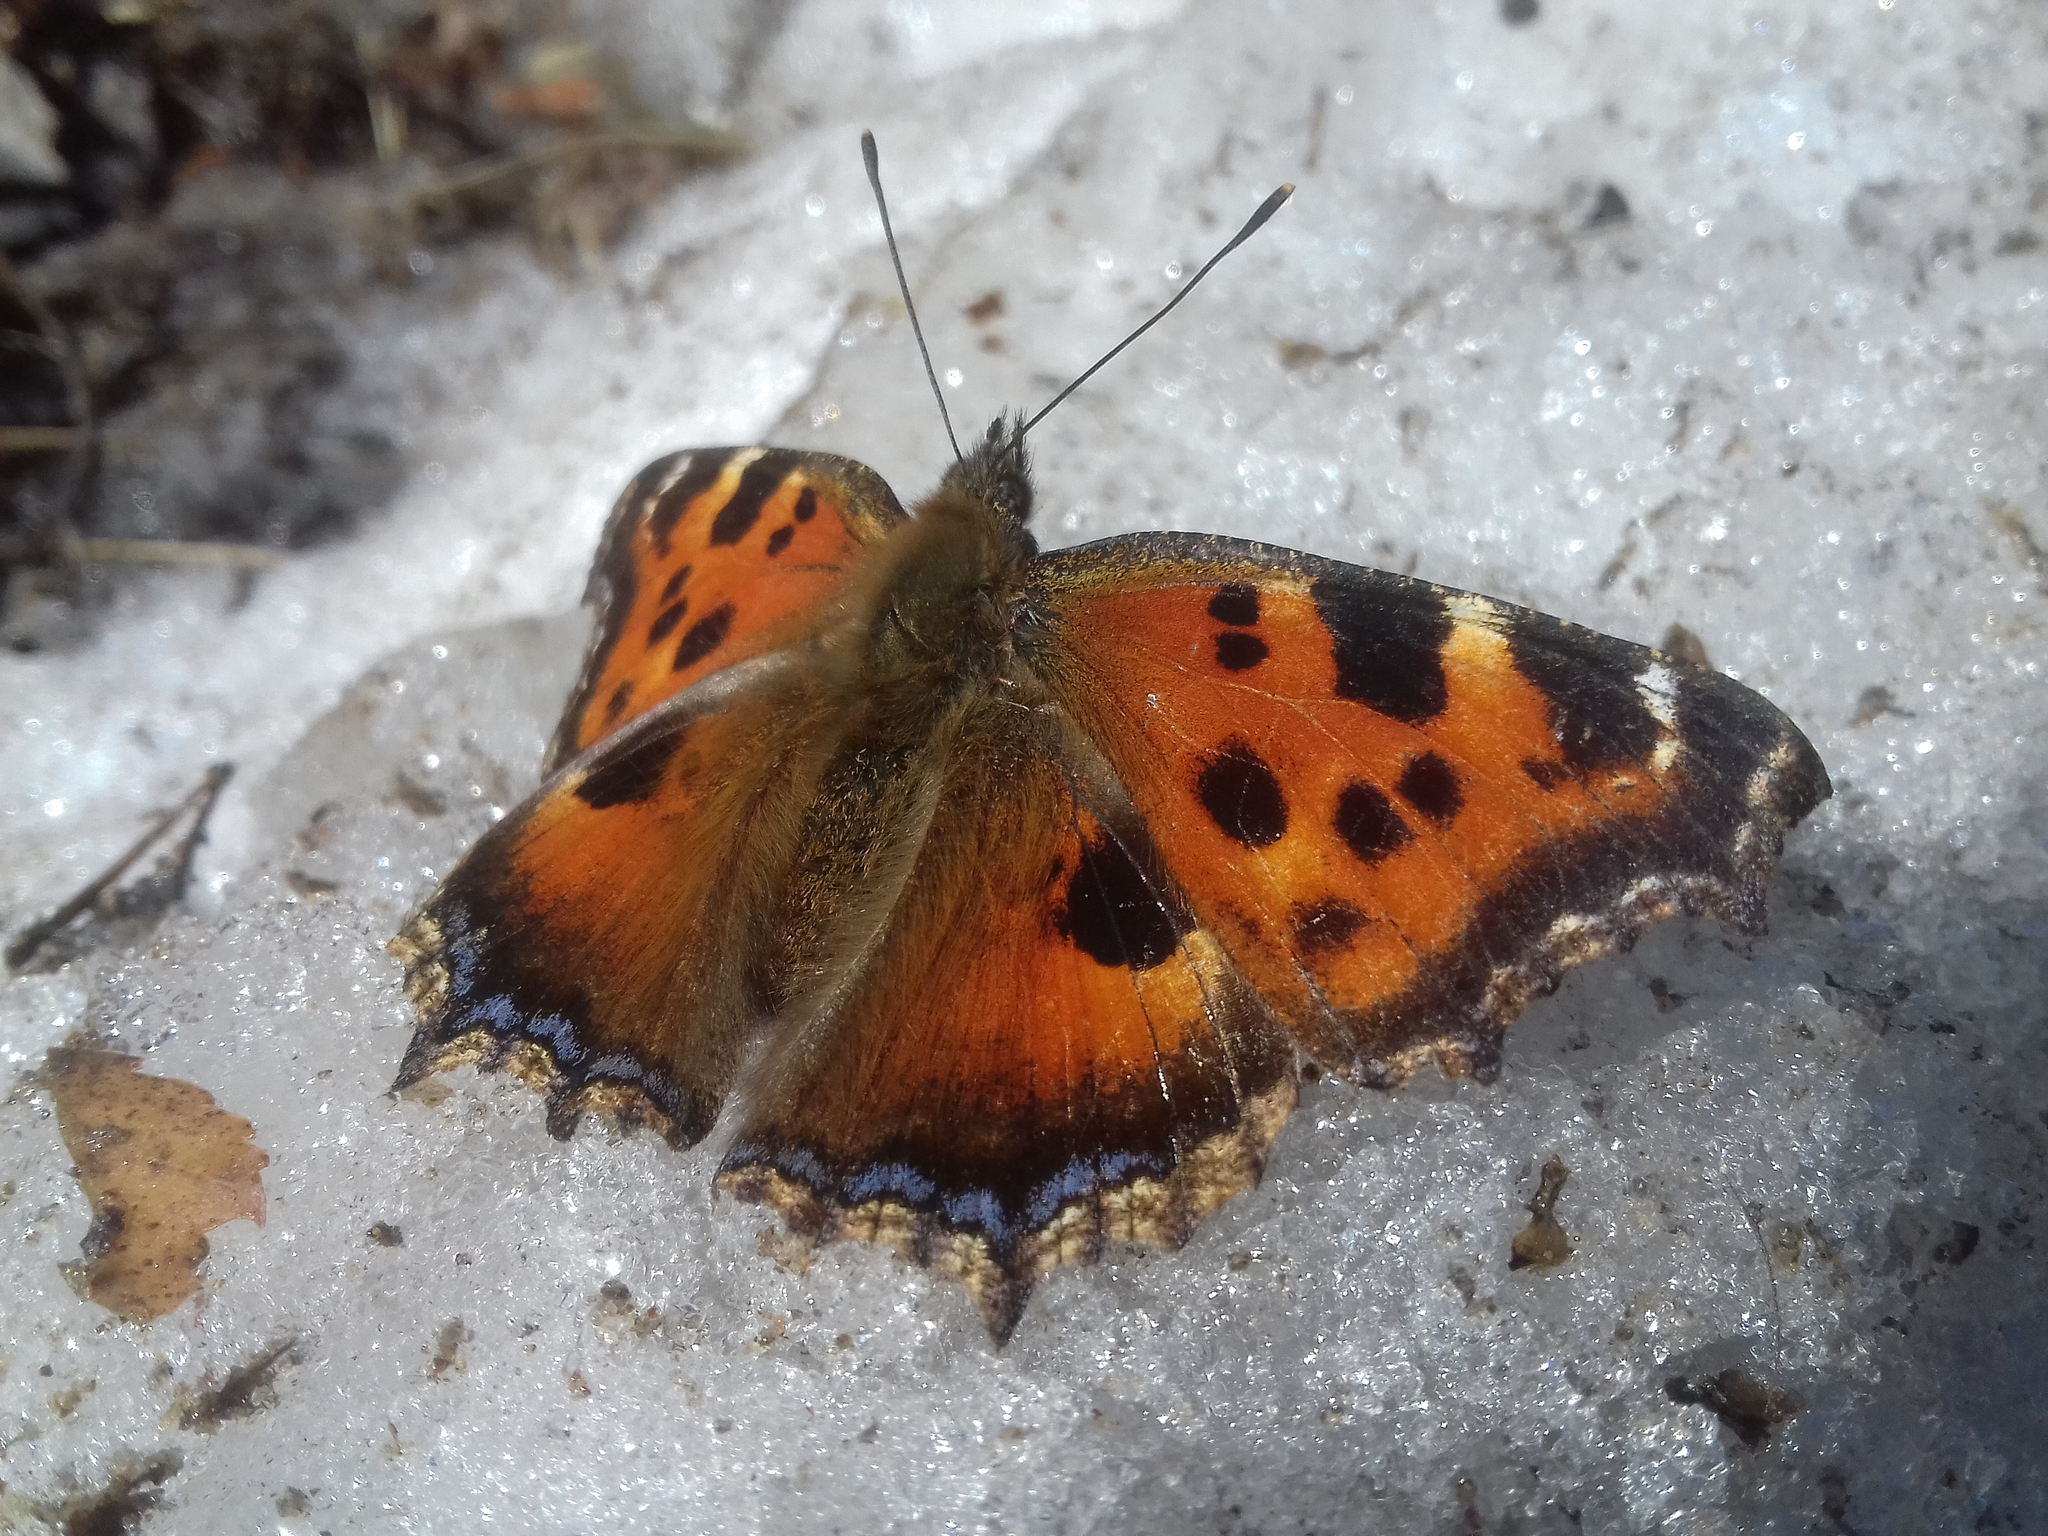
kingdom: Animalia
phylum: Arthropoda
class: Insecta
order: Lepidoptera
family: Nymphalidae
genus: Nymphalis
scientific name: Nymphalis xanthomelas
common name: Scarce tortoiseshell
